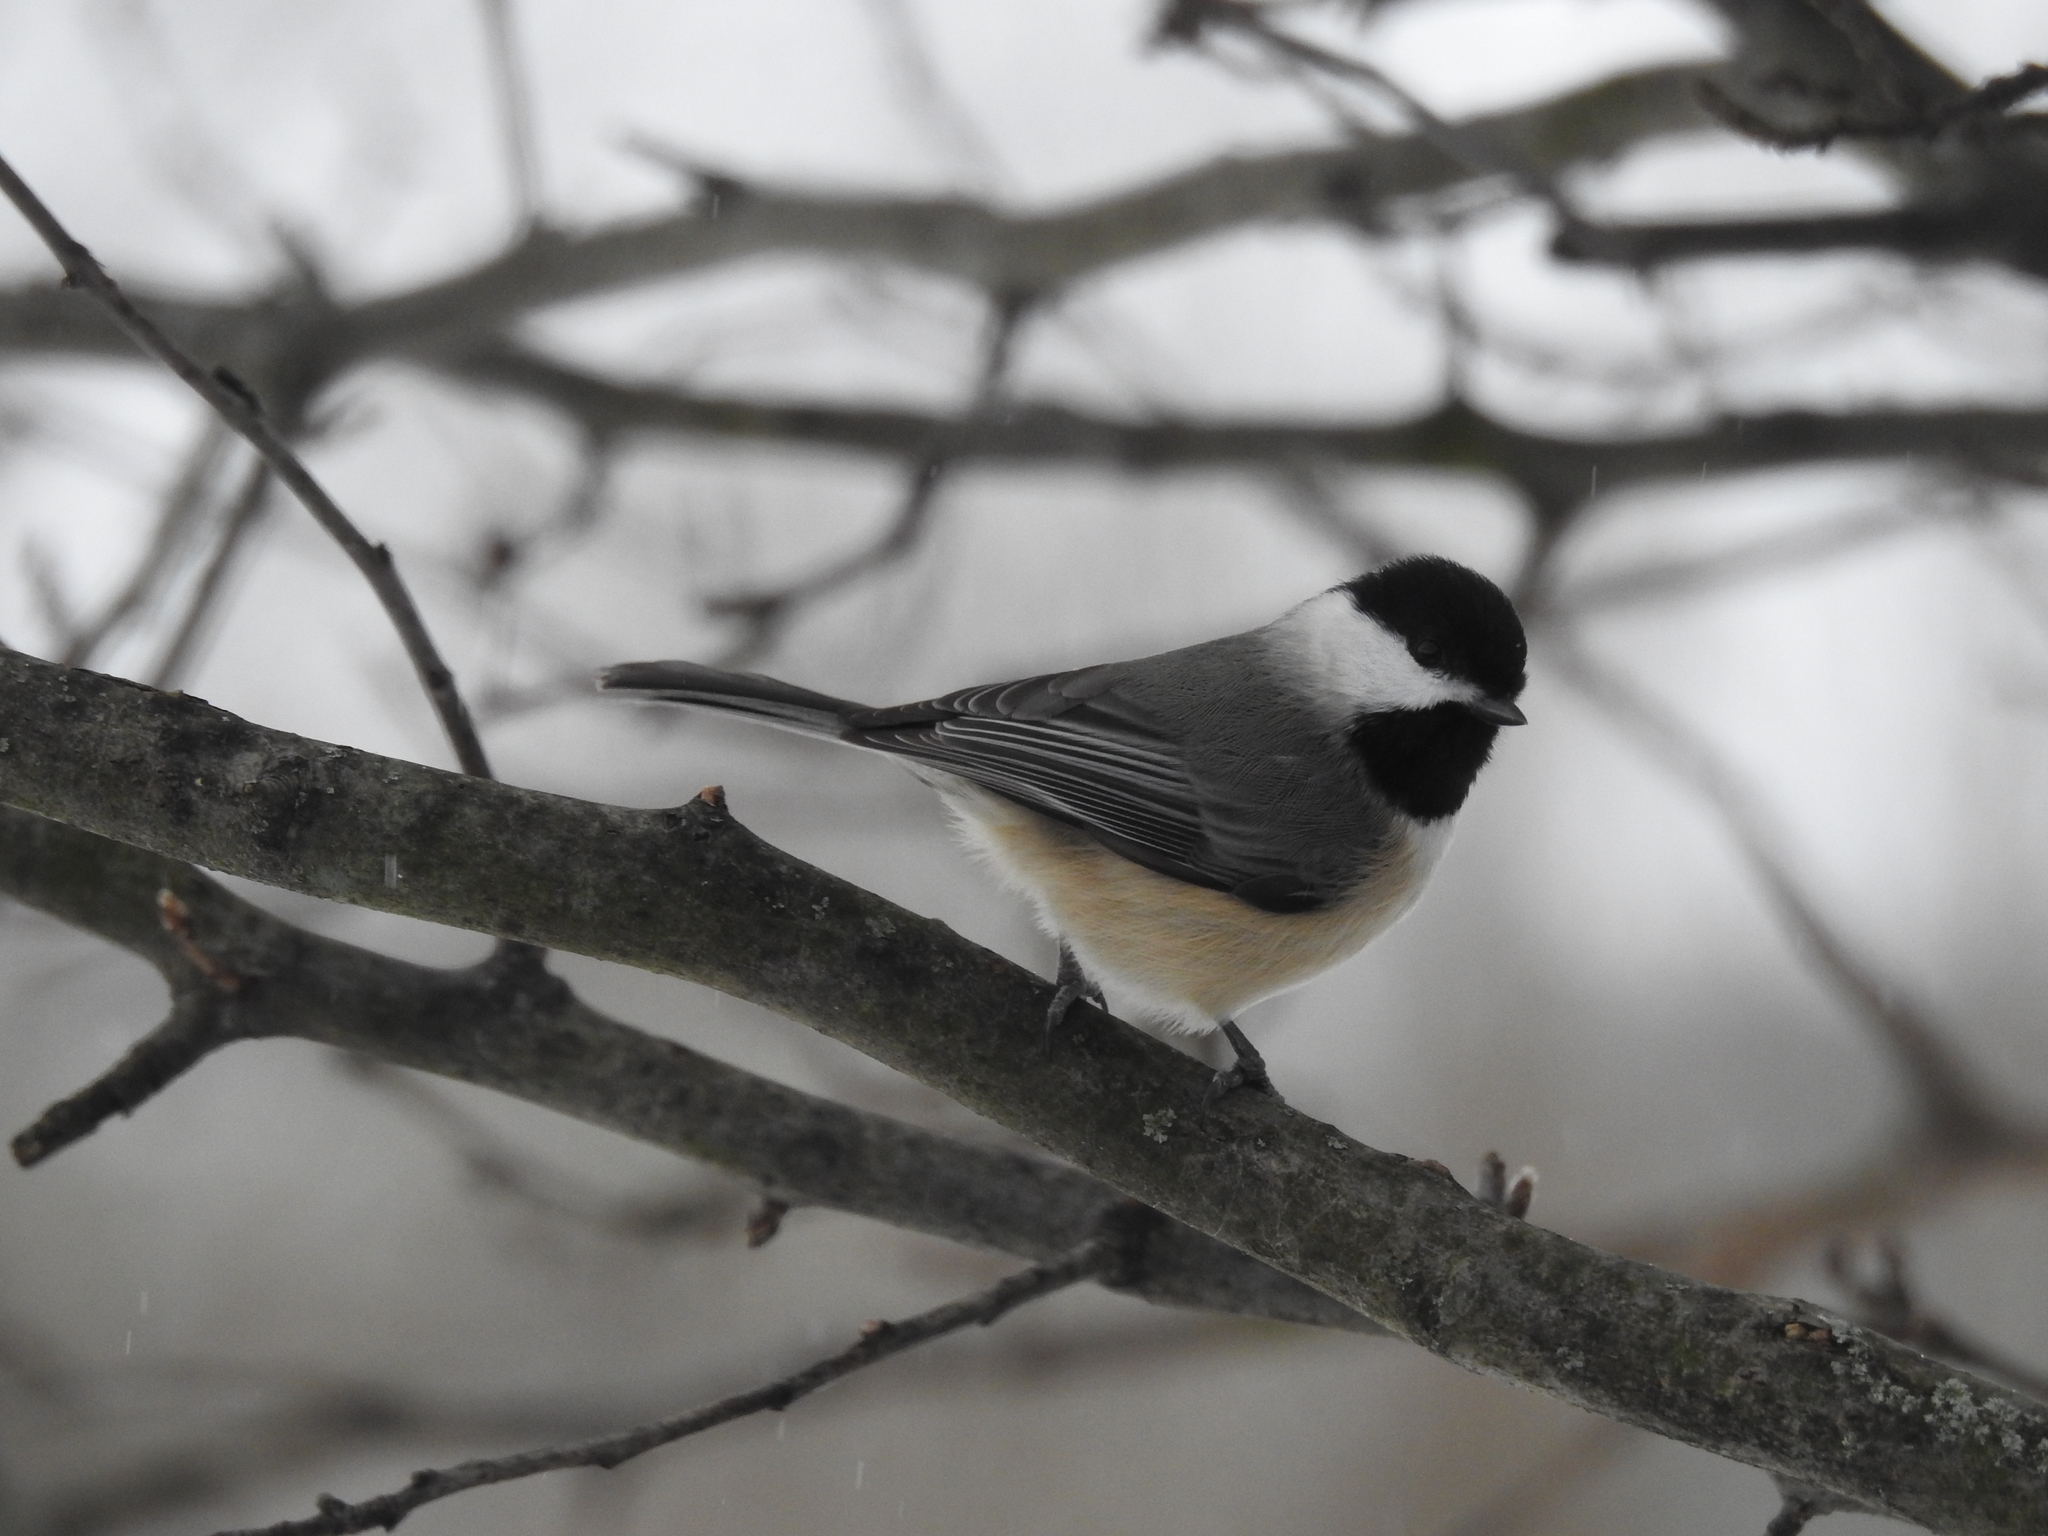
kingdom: Animalia
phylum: Chordata
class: Aves
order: Passeriformes
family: Paridae
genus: Poecile
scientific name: Poecile carolinensis
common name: Carolina chickadee
